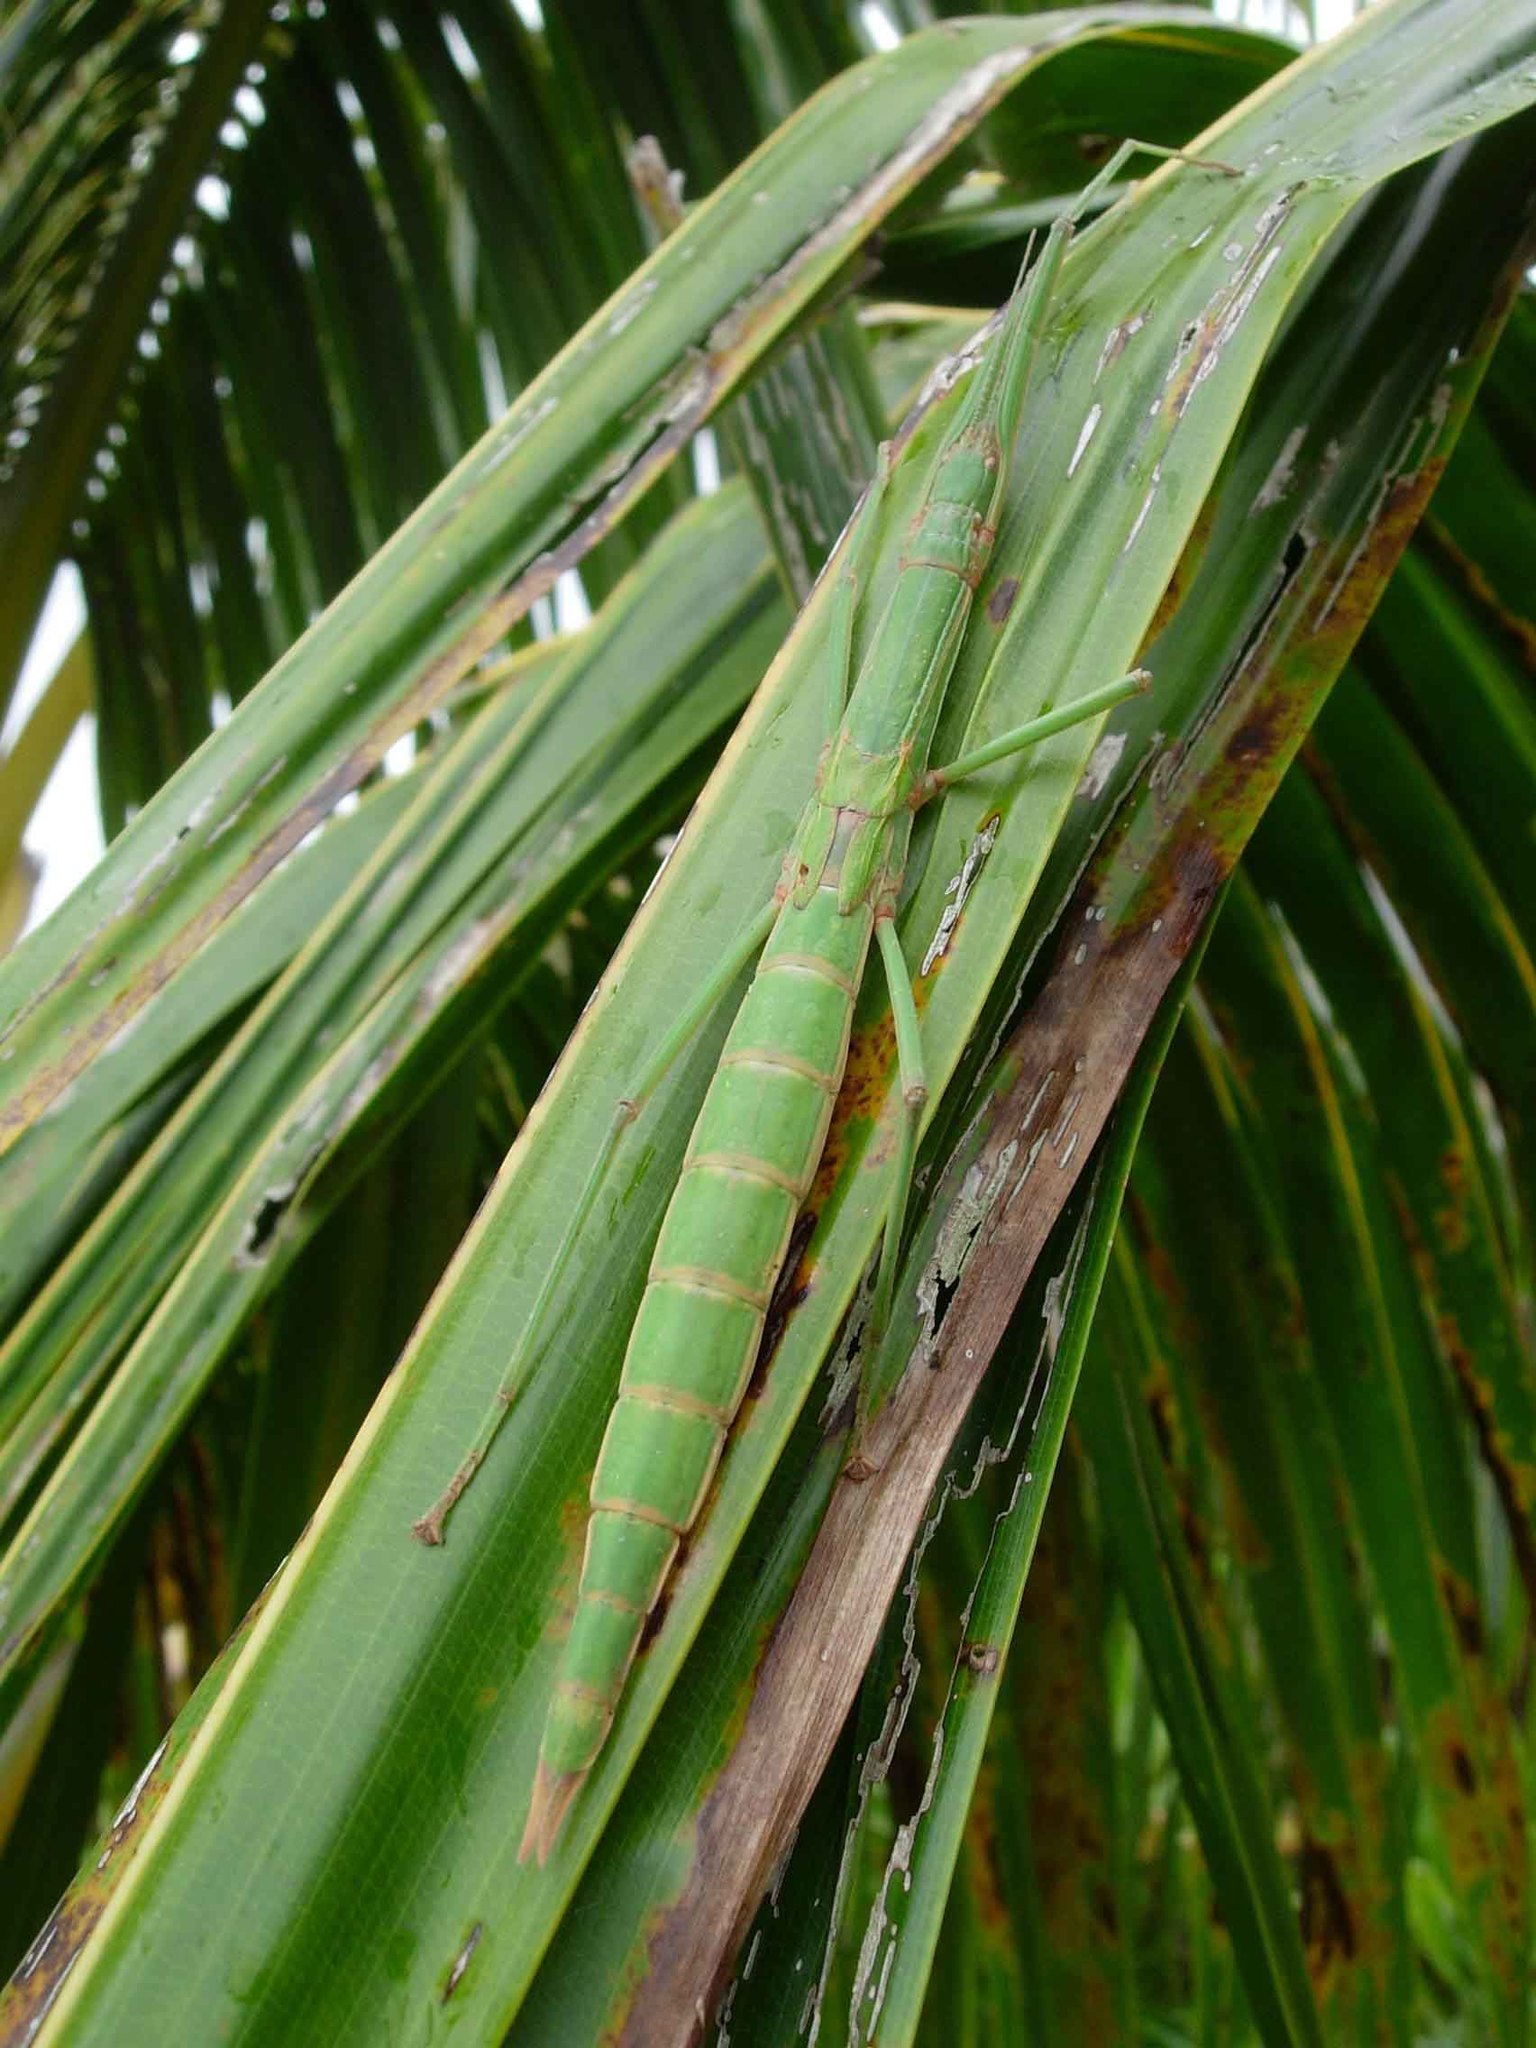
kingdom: Animalia
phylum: Arthropoda
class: Insecta
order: Phasmida
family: Phasmatidae
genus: Graeffea
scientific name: Graeffea crouanii
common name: Coconut stick insect
